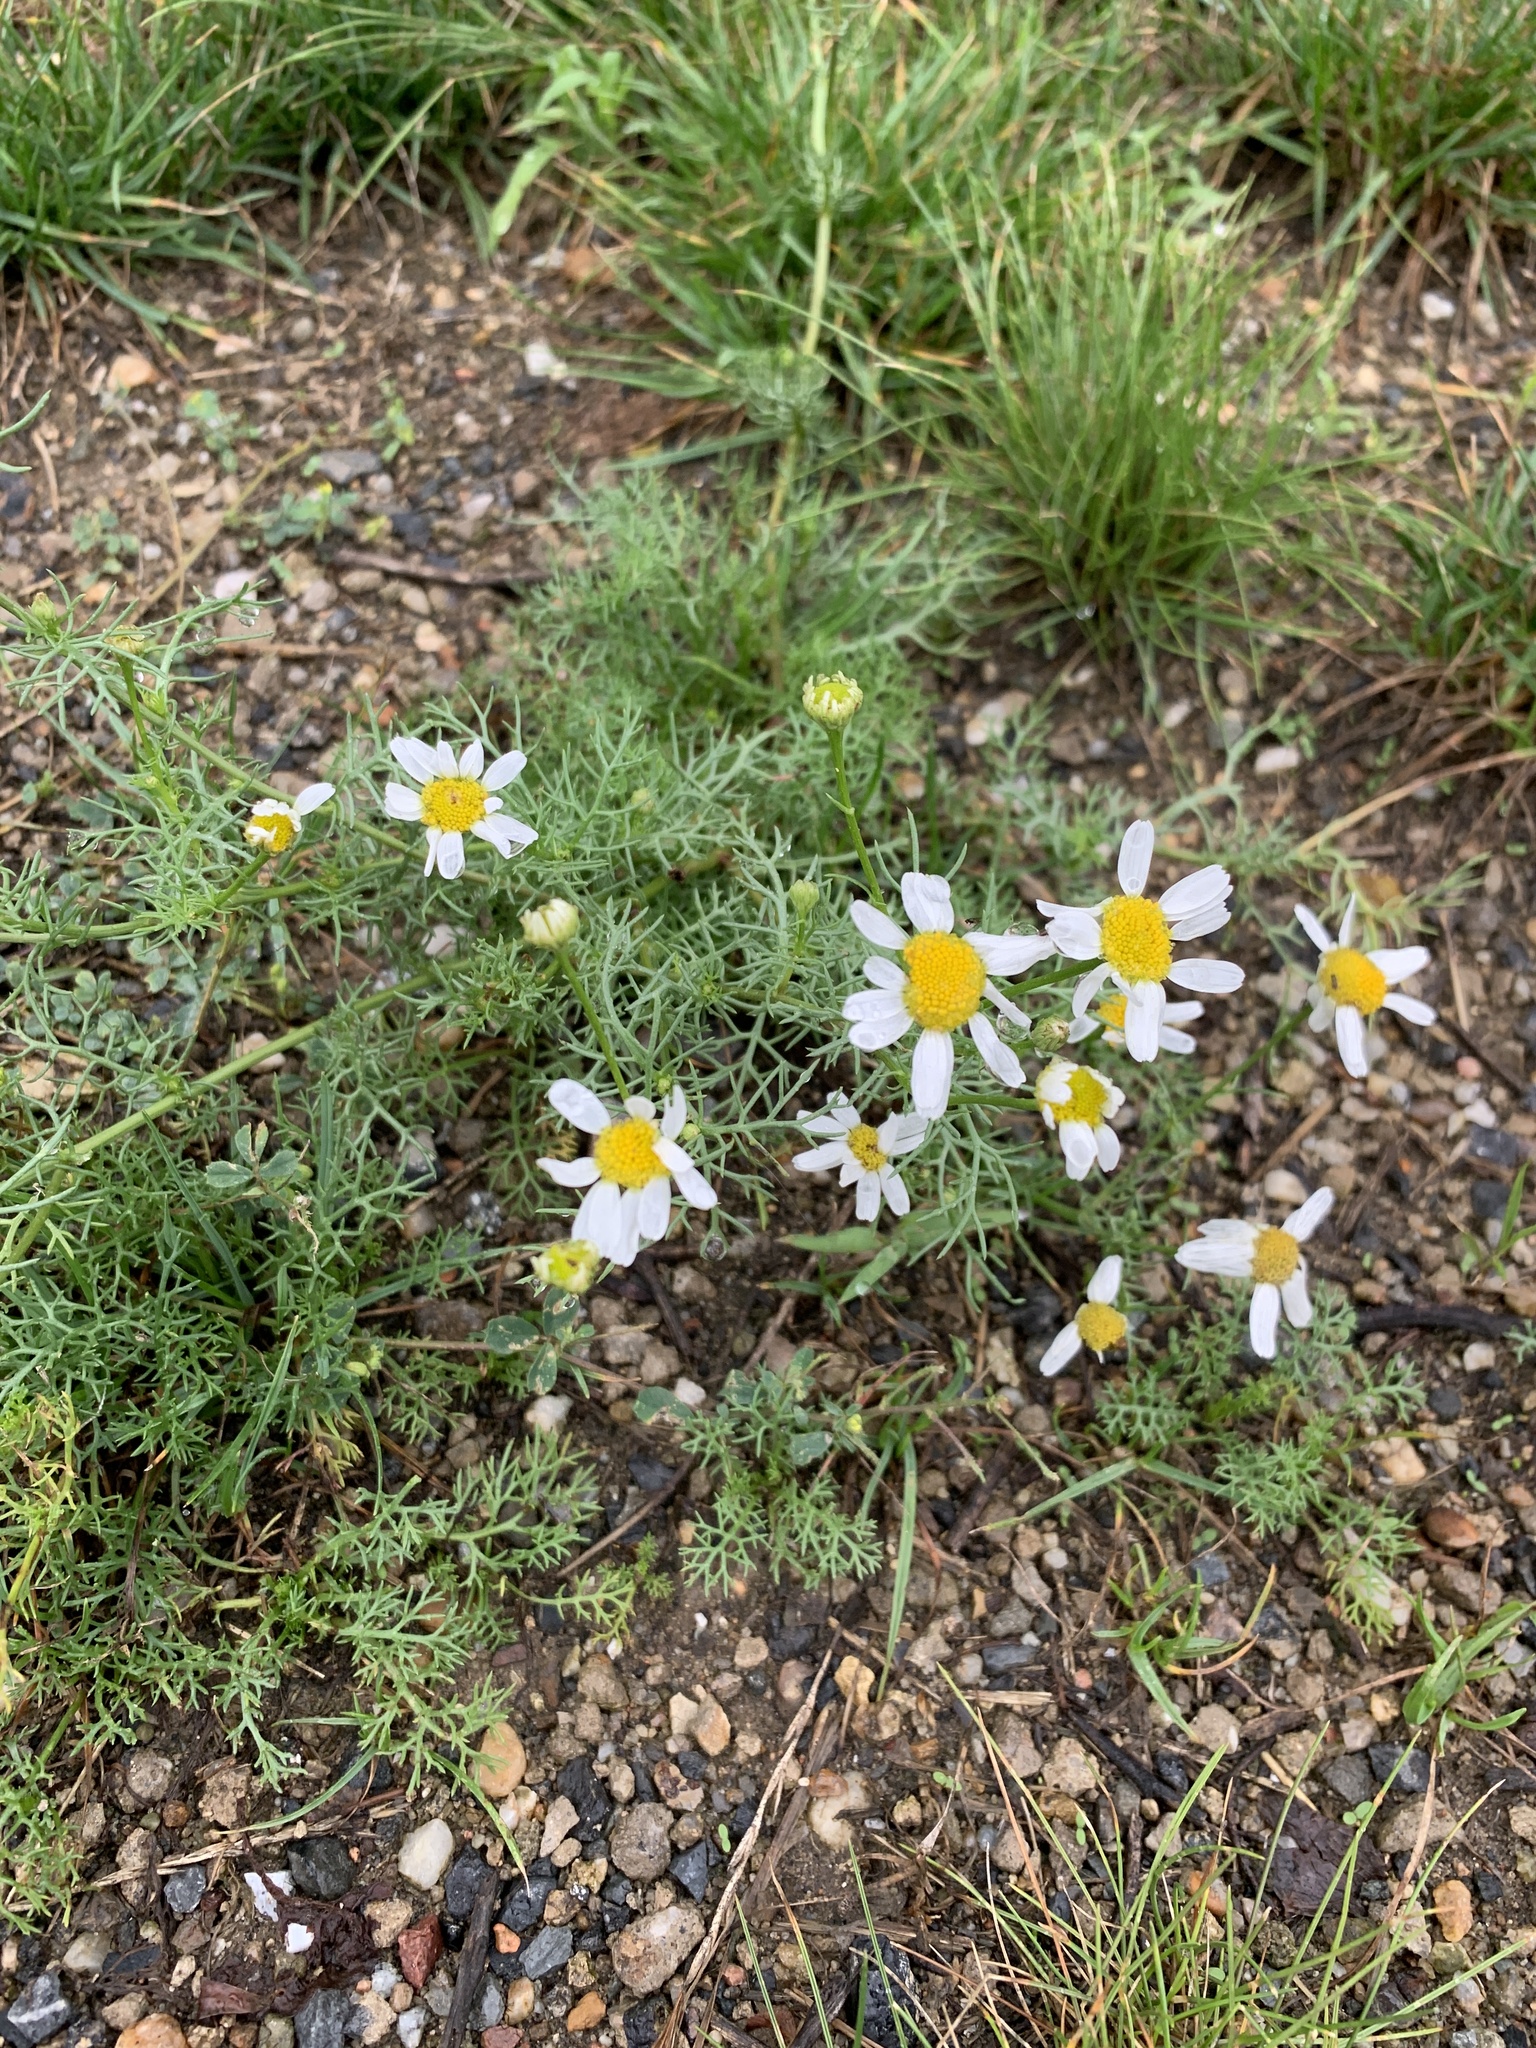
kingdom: Plantae
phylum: Tracheophyta
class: Magnoliopsida
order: Asterales
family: Asteraceae
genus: Tripleurospermum
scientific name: Tripleurospermum inodorum
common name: Scentless mayweed
